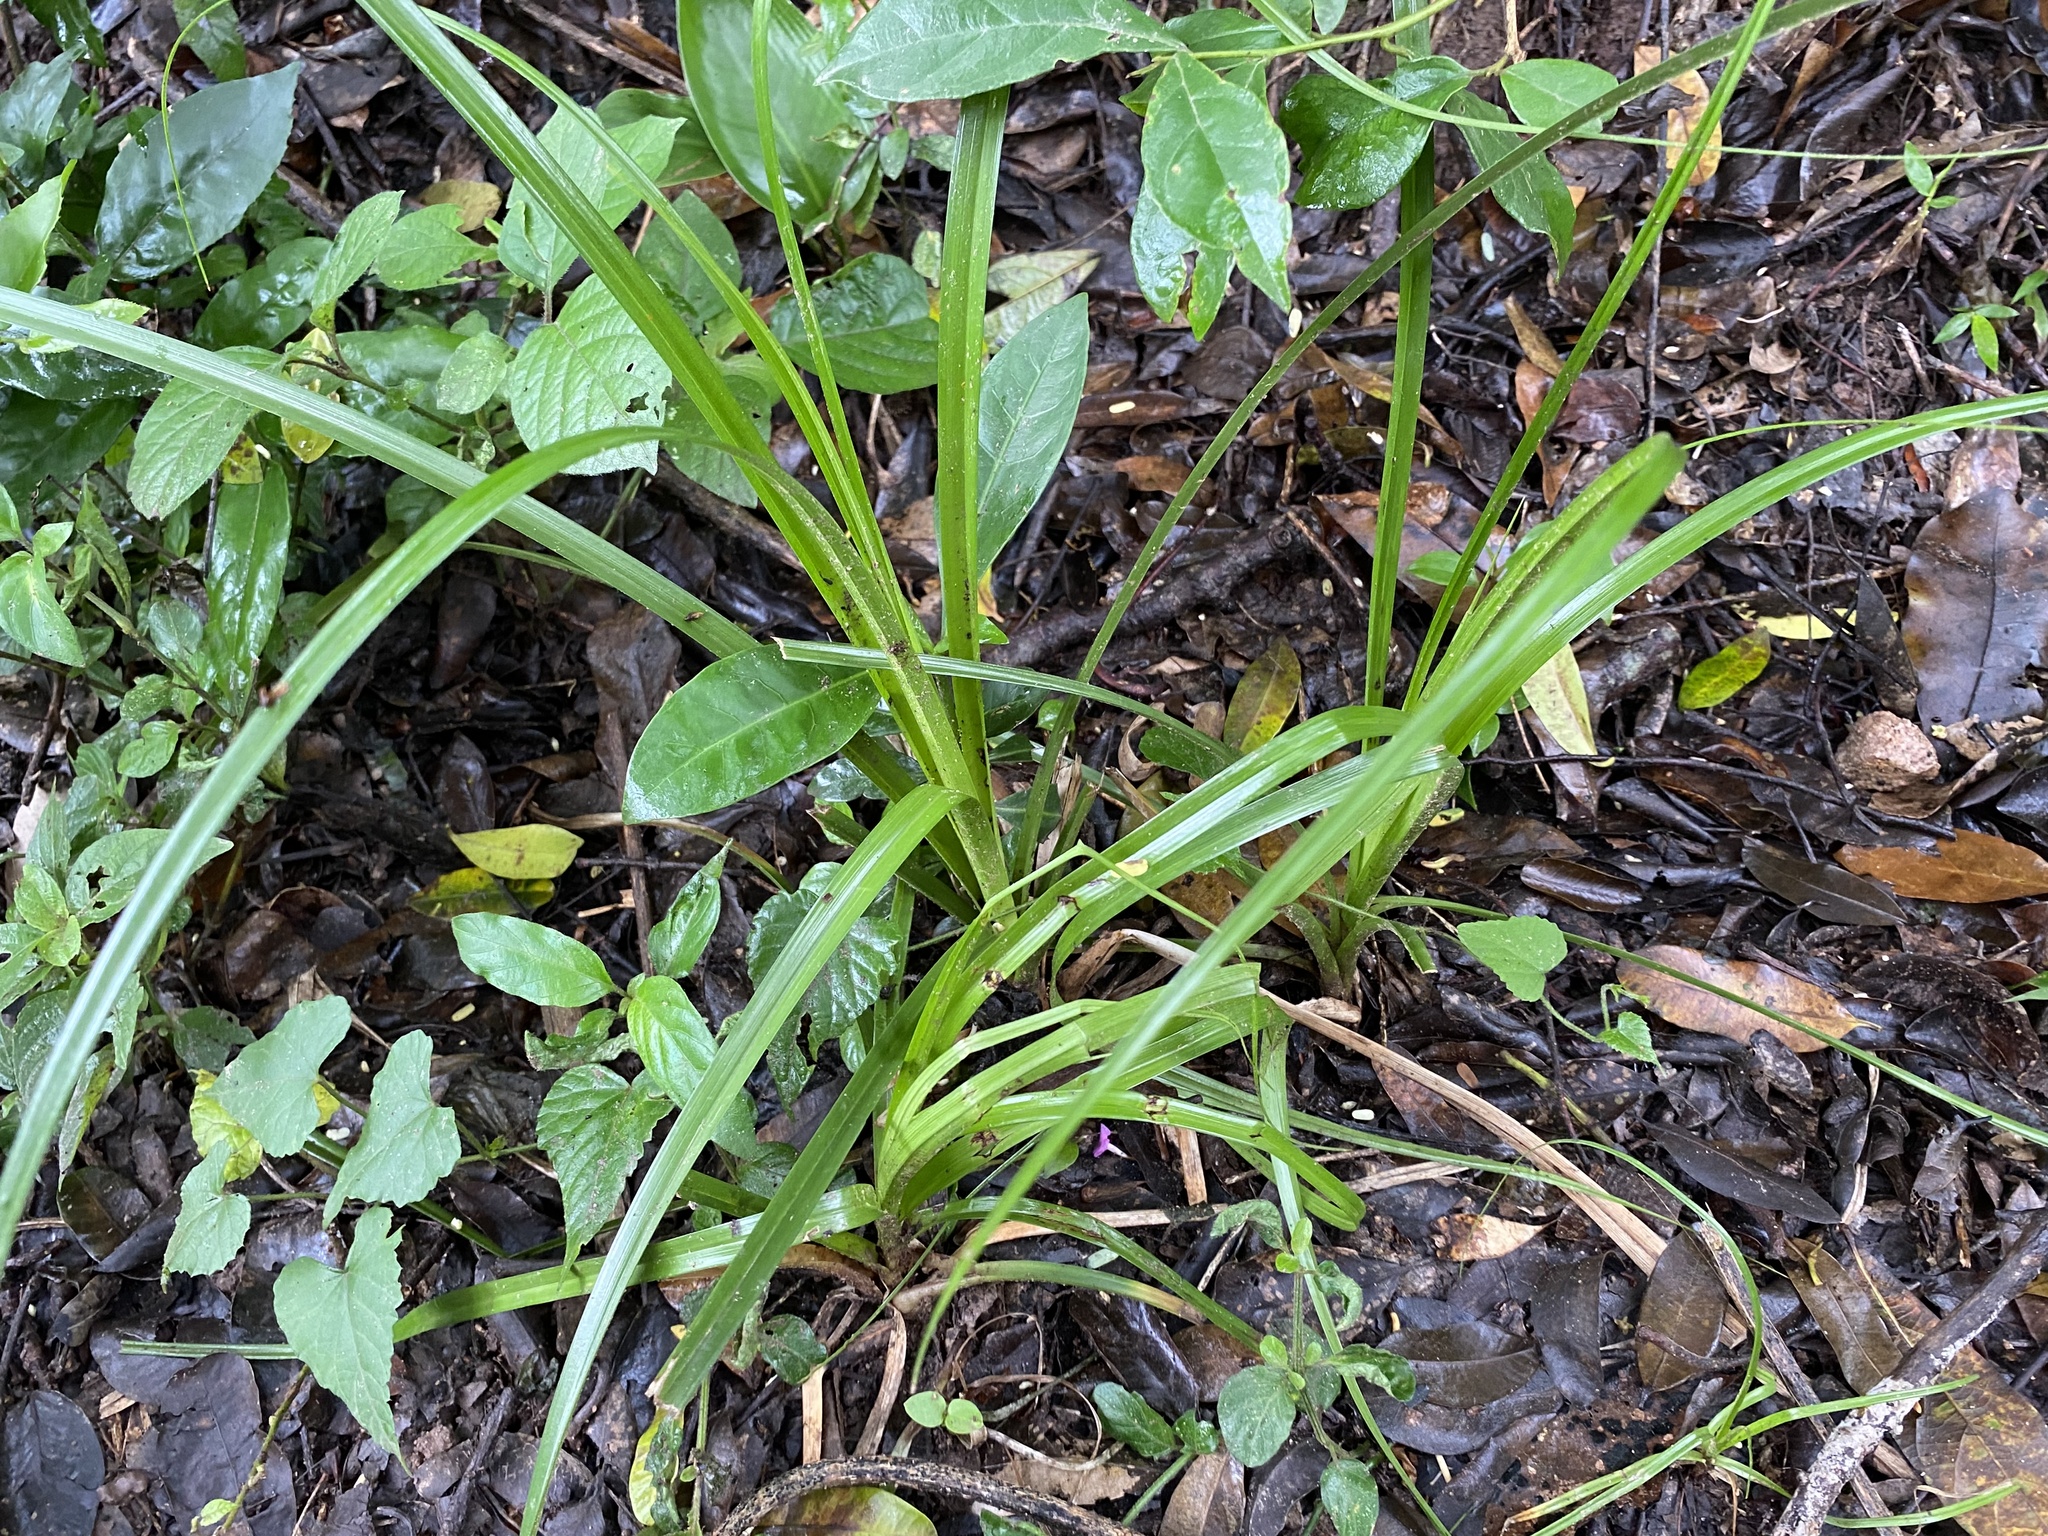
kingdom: Plantae
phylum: Tracheophyta
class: Liliopsida
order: Asparagales
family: Asparagaceae
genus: Chlorophytum
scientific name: Chlorophytum saundersiae
